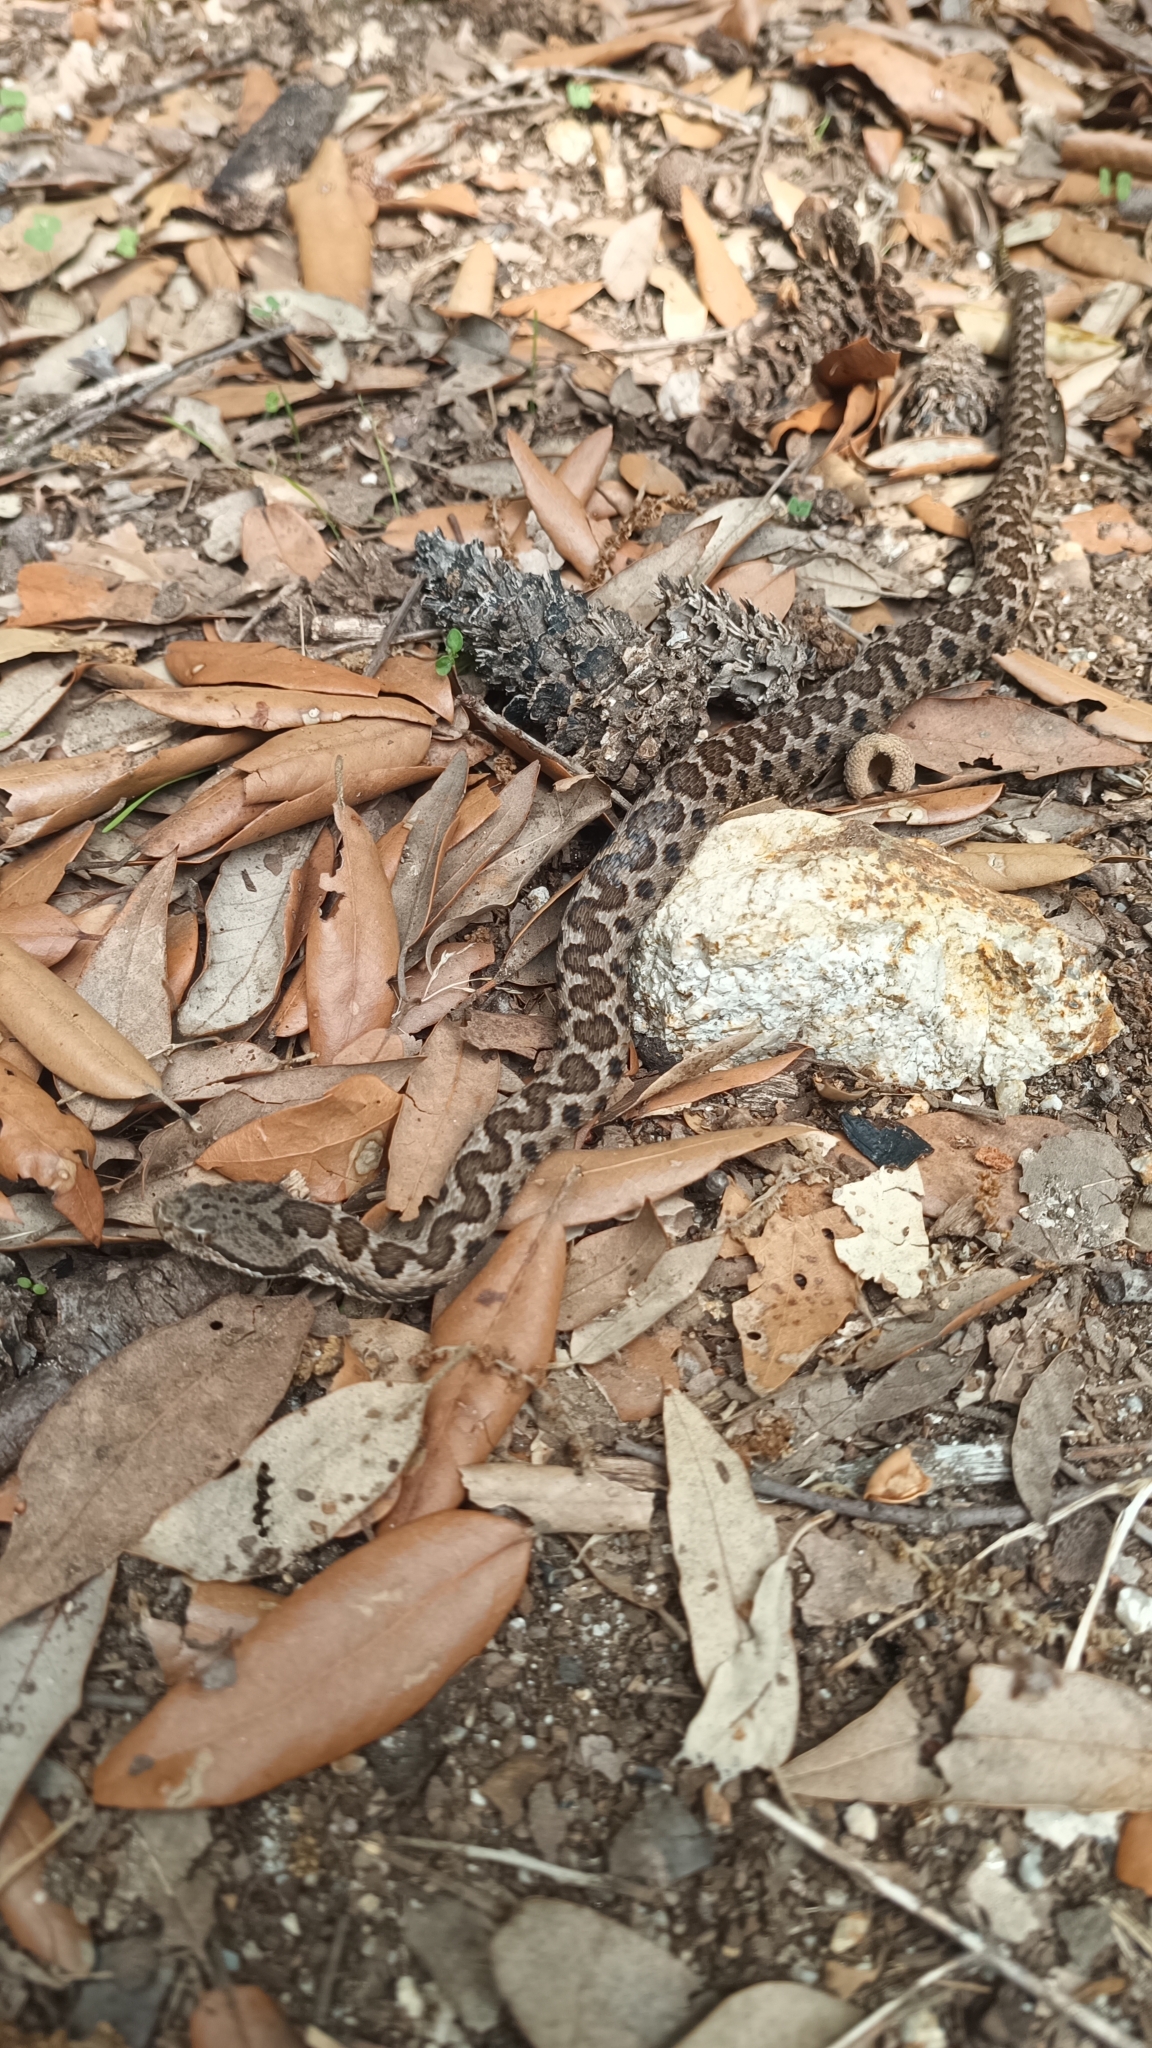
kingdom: Animalia
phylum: Chordata
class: Squamata
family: Viperidae
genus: Vipera
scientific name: Vipera aspis
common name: Asp viper
